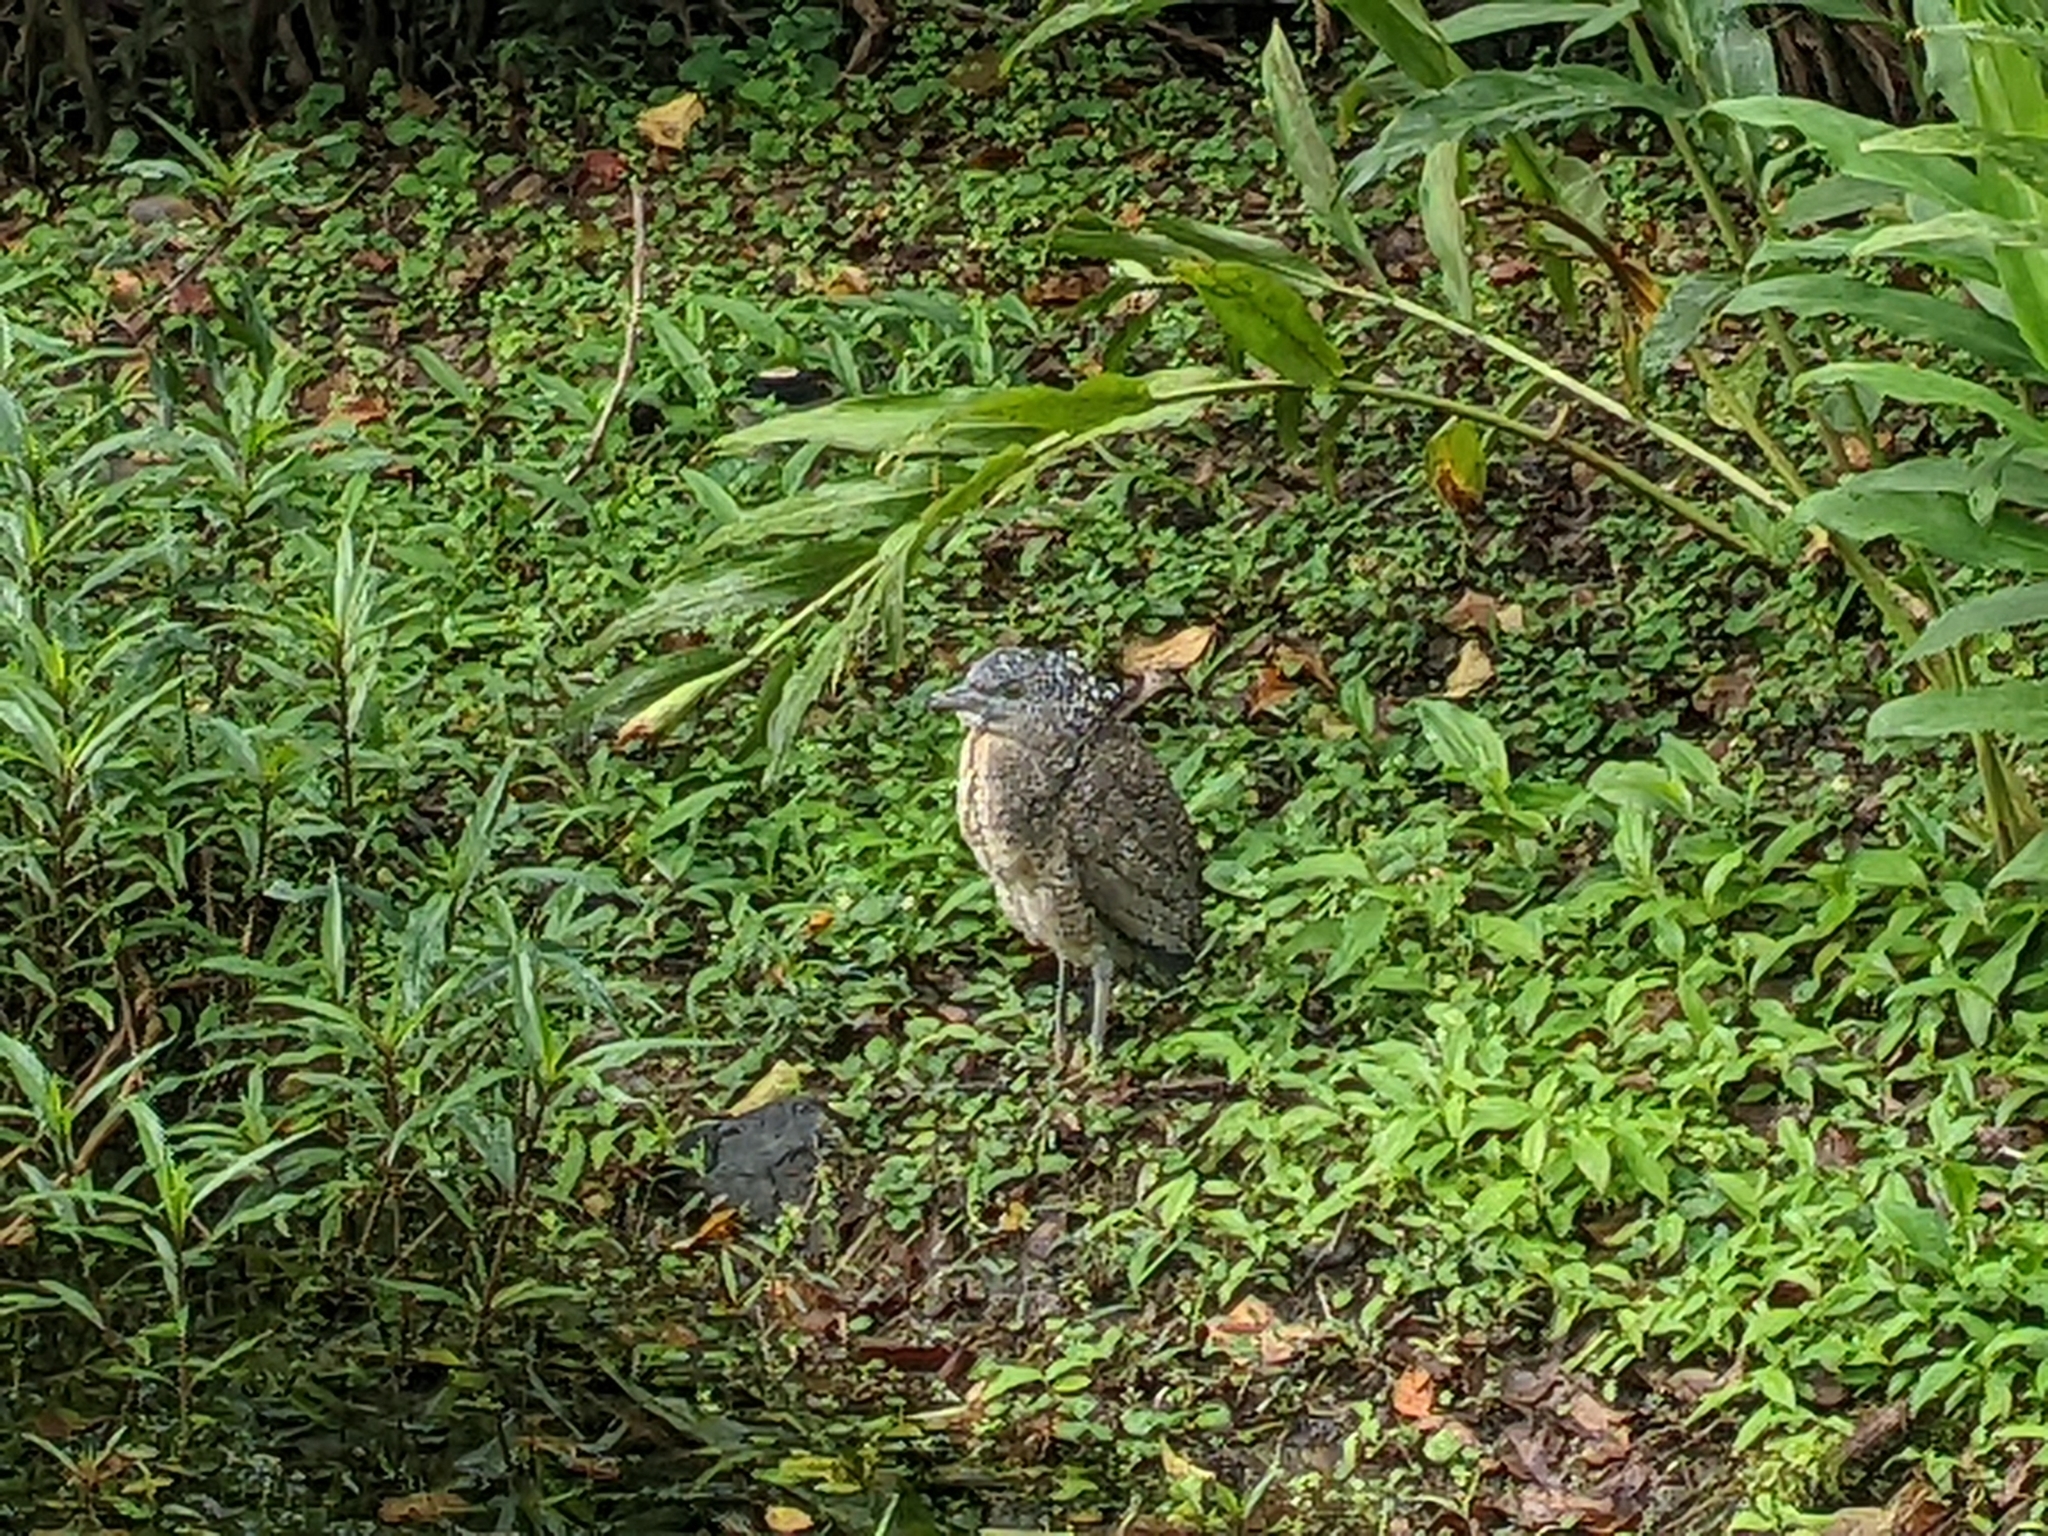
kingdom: Animalia
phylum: Chordata
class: Aves
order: Pelecaniformes
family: Ardeidae
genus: Gorsachius
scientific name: Gorsachius melanolophus
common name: Malayan night heron
